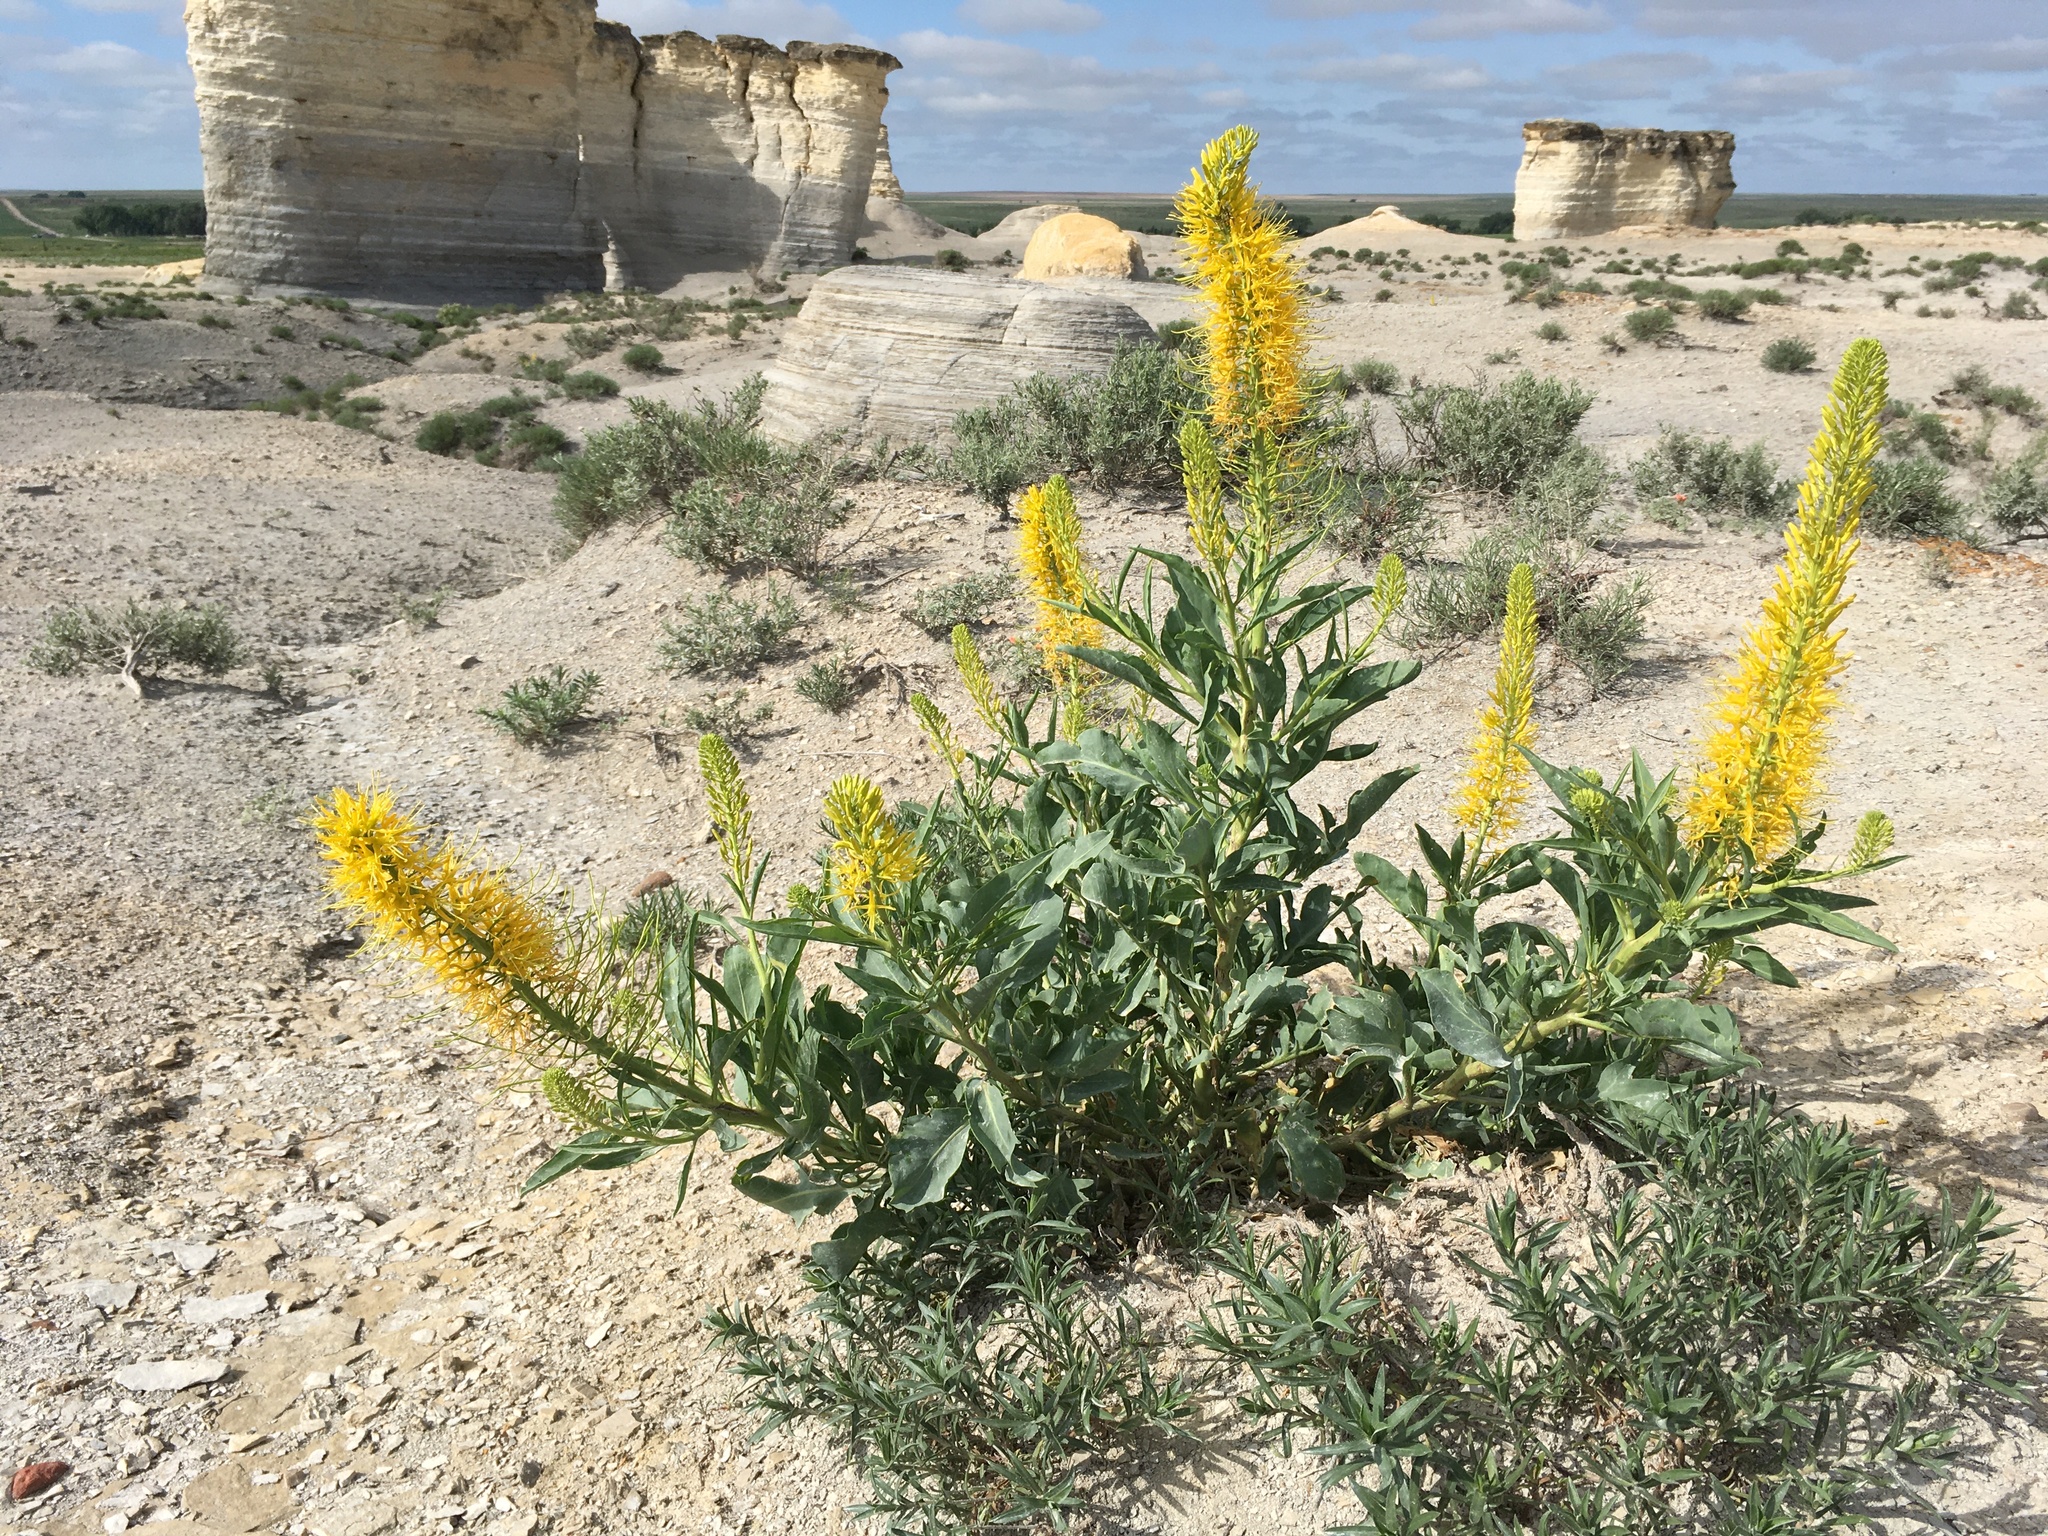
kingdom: Plantae
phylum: Tracheophyta
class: Magnoliopsida
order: Brassicales
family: Brassicaceae
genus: Stanleya
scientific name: Stanleya pinnata
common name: Prince's-plume
